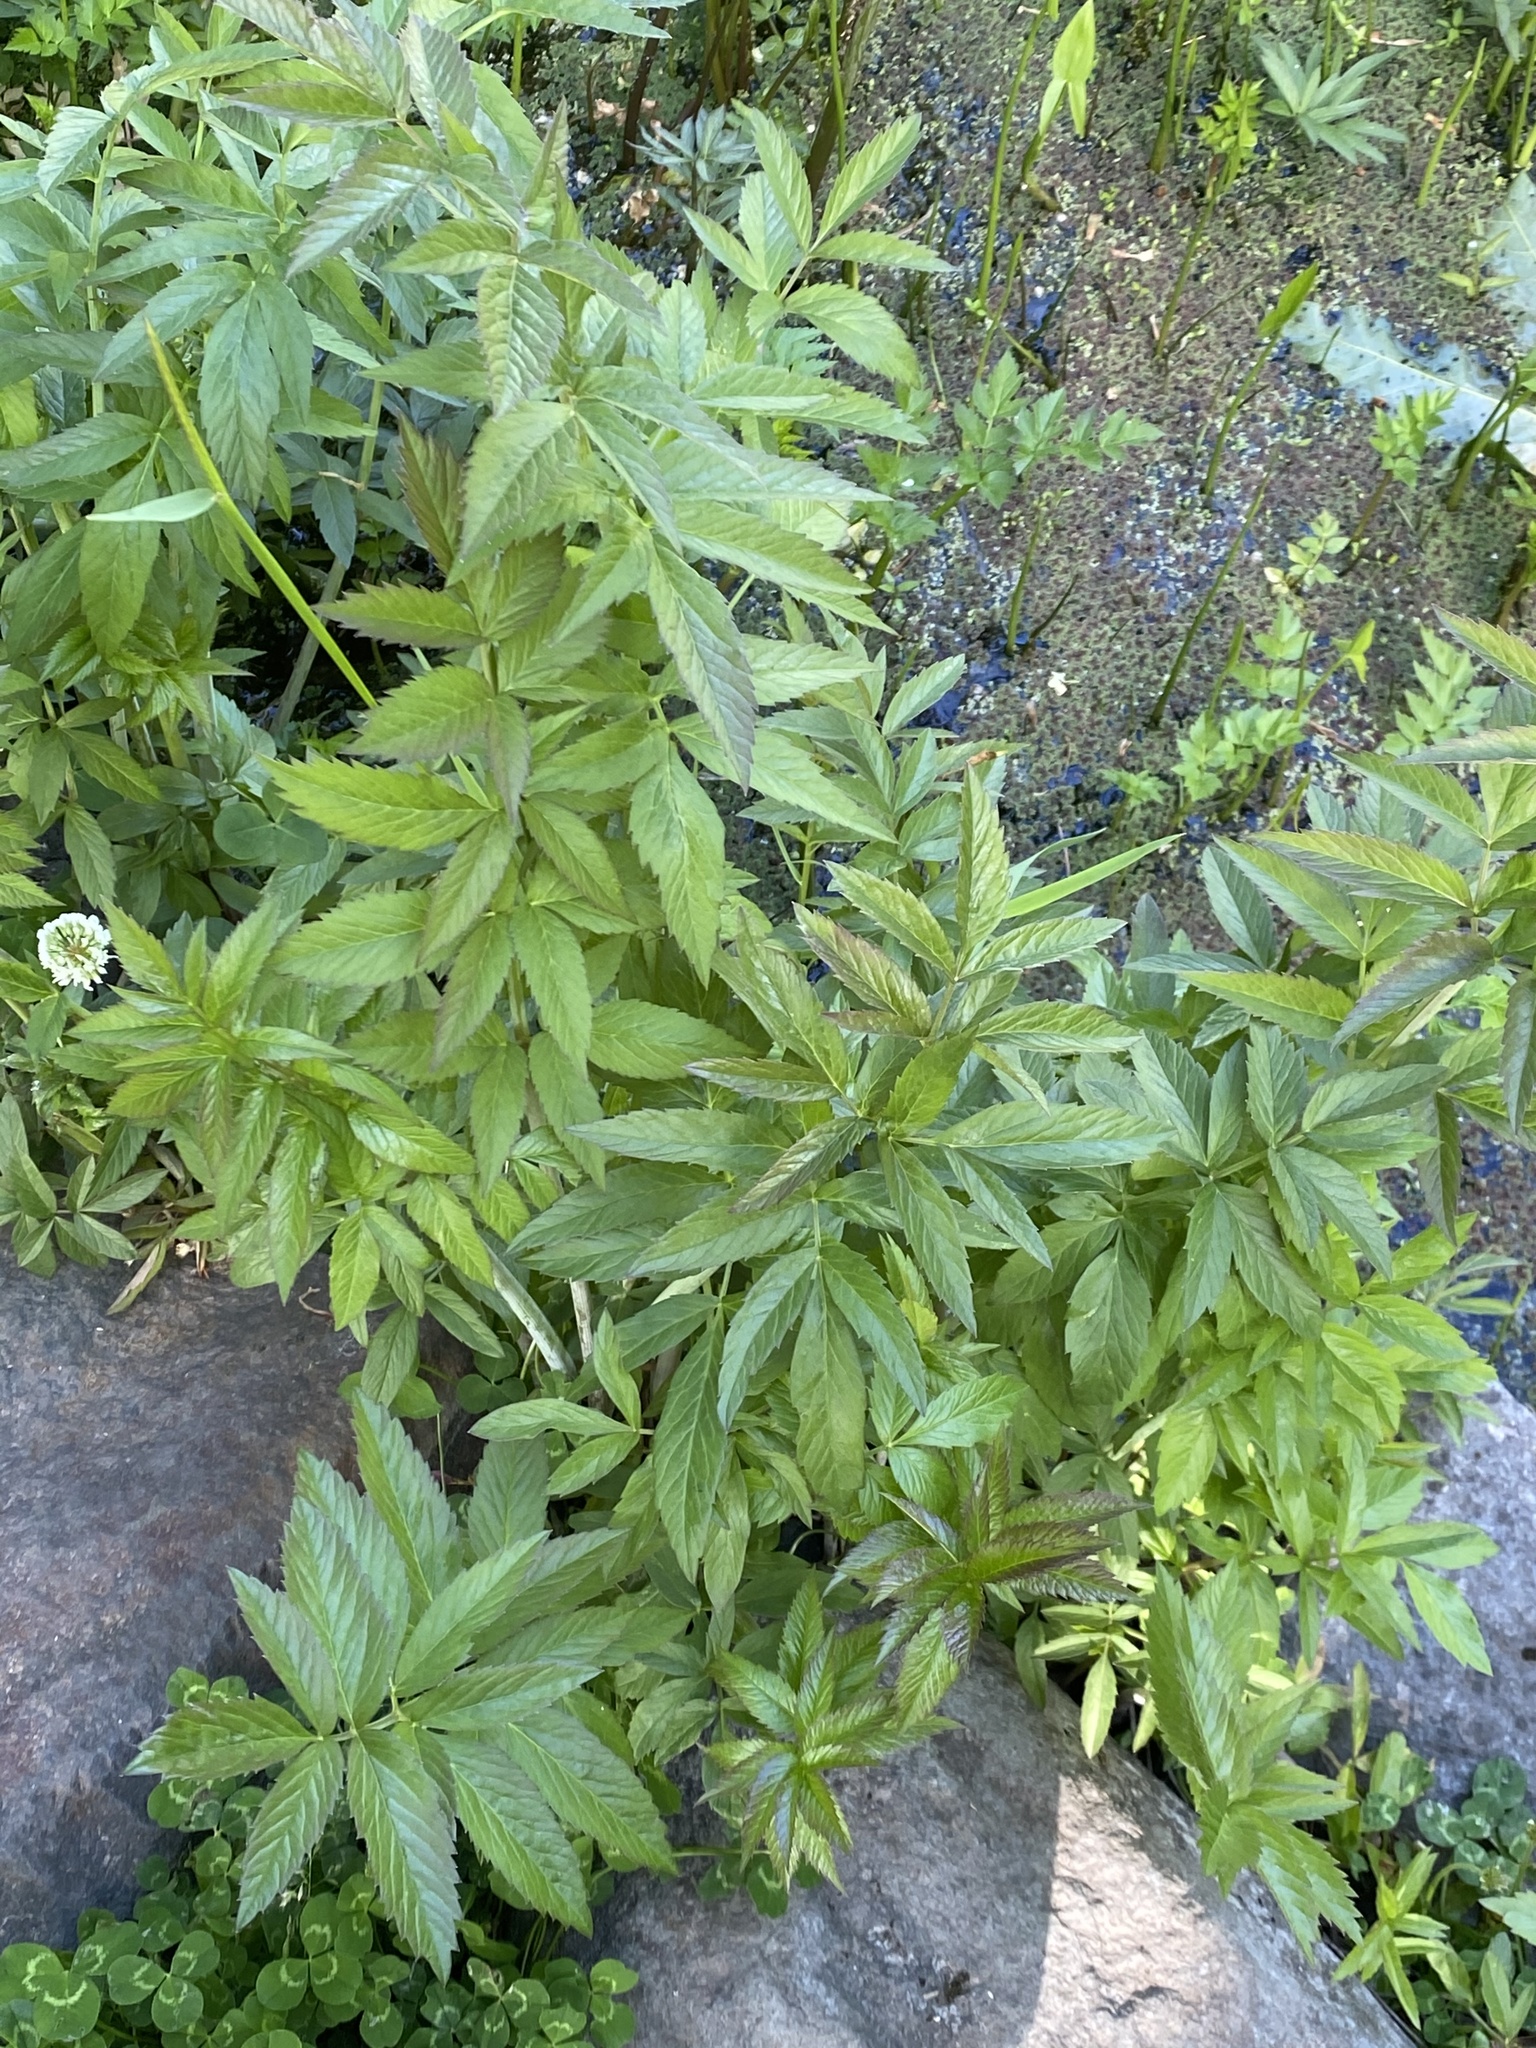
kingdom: Plantae
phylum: Tracheophyta
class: Magnoliopsida
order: Apiales
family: Apiaceae
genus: Cicuta
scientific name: Cicuta douglasii
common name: Western water-hemlock
